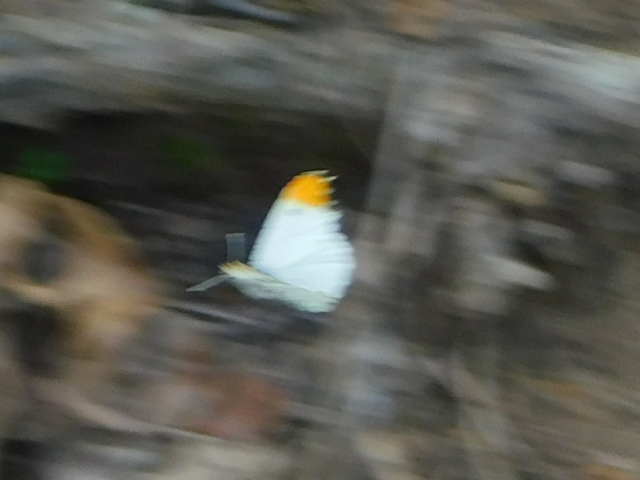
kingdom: Animalia
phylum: Arthropoda
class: Insecta
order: Lepidoptera
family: Pieridae
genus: Anthocharis
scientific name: Anthocharis midea
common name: Falcate orangetip
